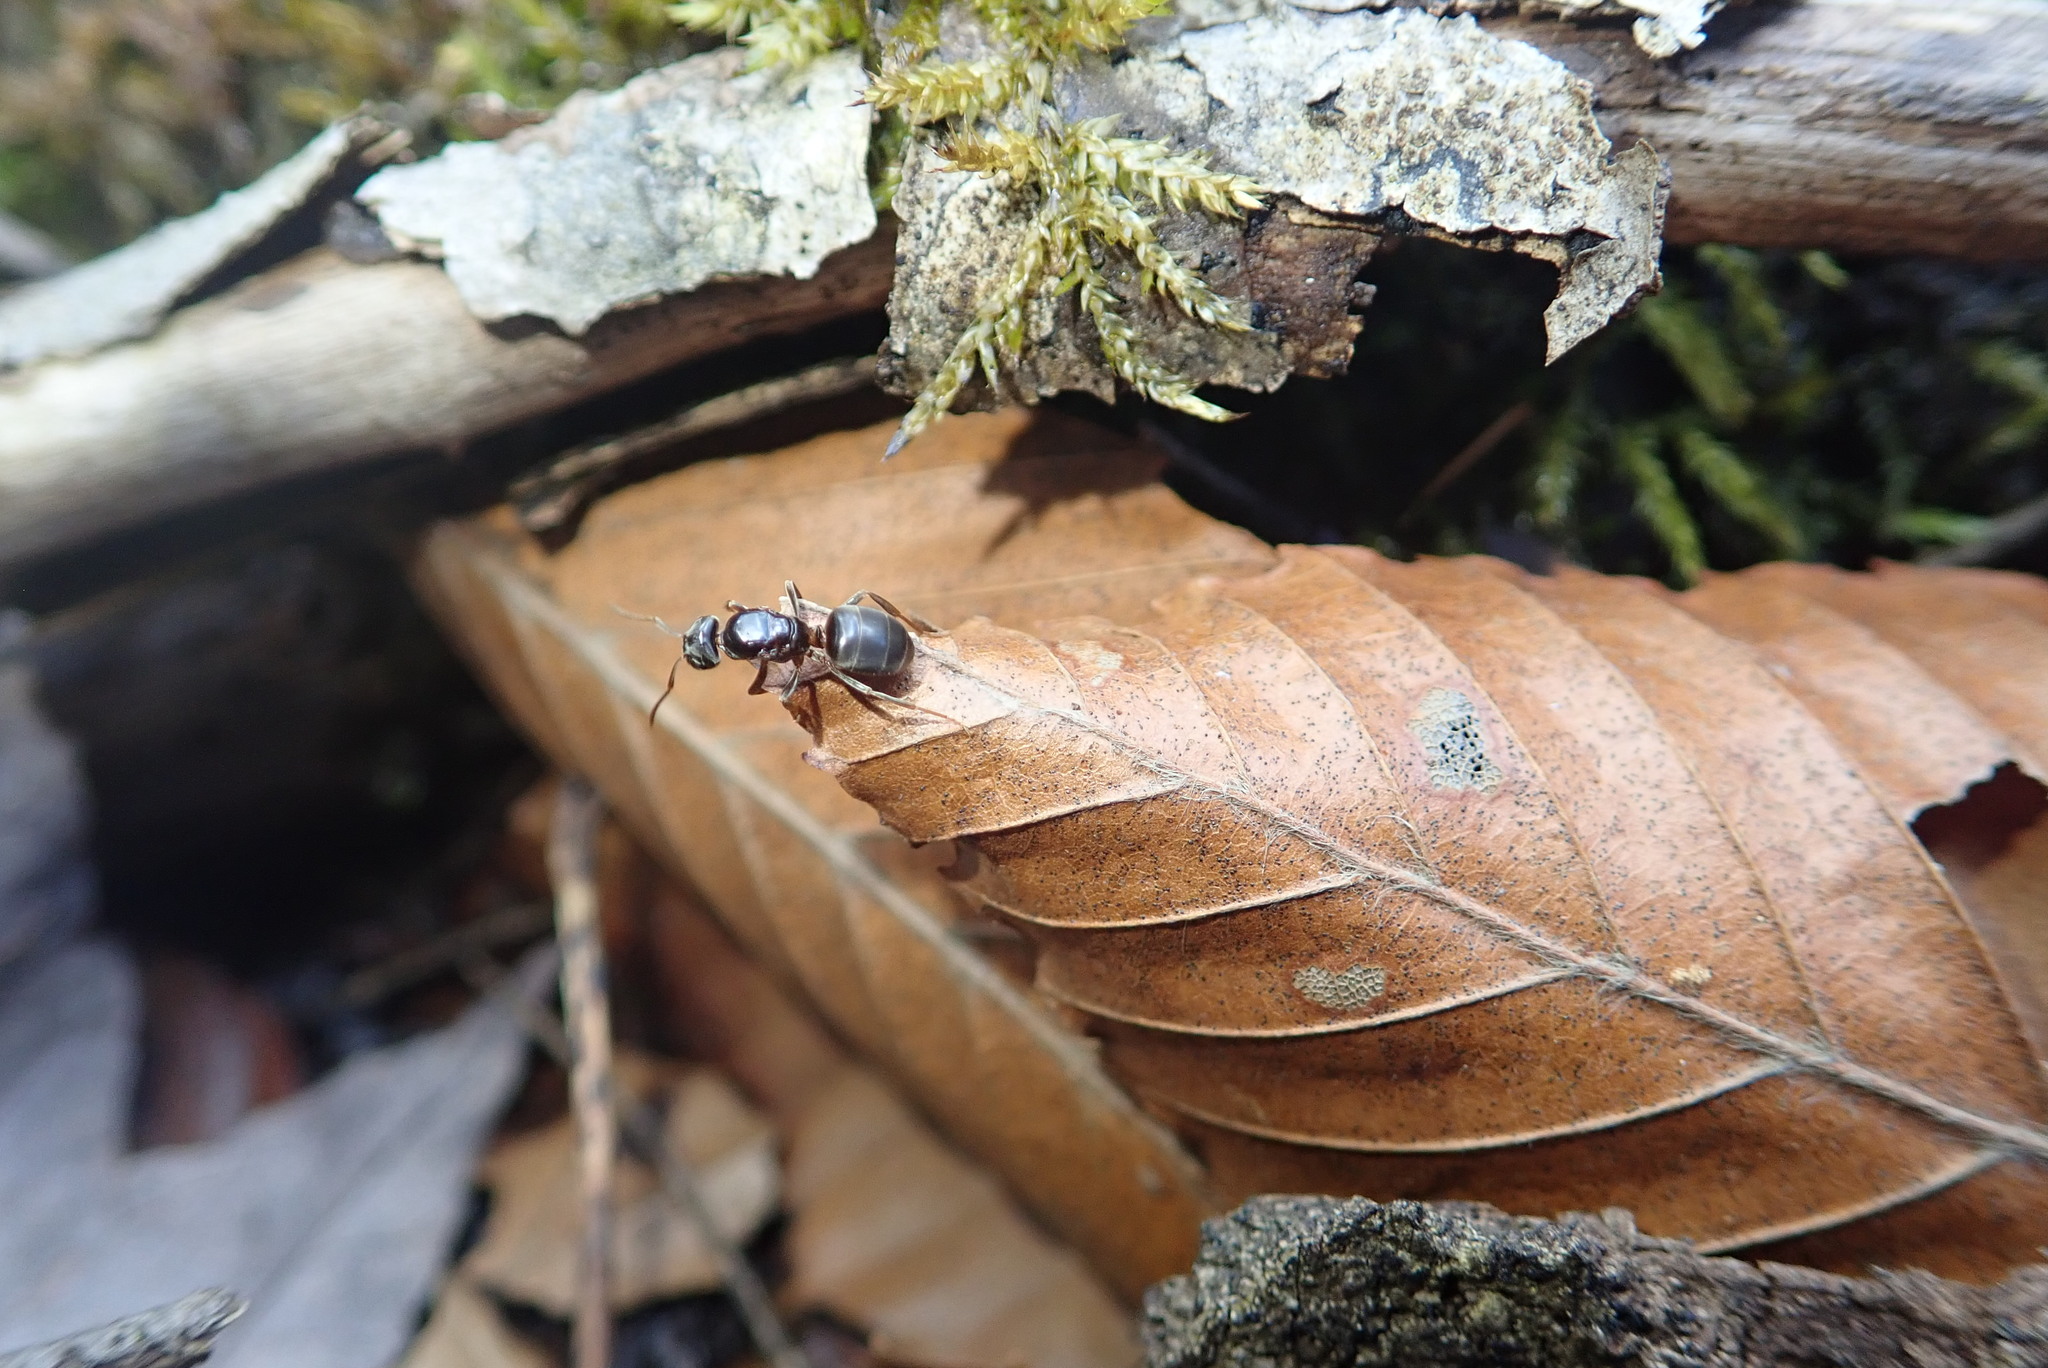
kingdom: Animalia
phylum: Arthropoda
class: Insecta
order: Hymenoptera
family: Formicidae
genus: Lasius
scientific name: Lasius aphidicola
